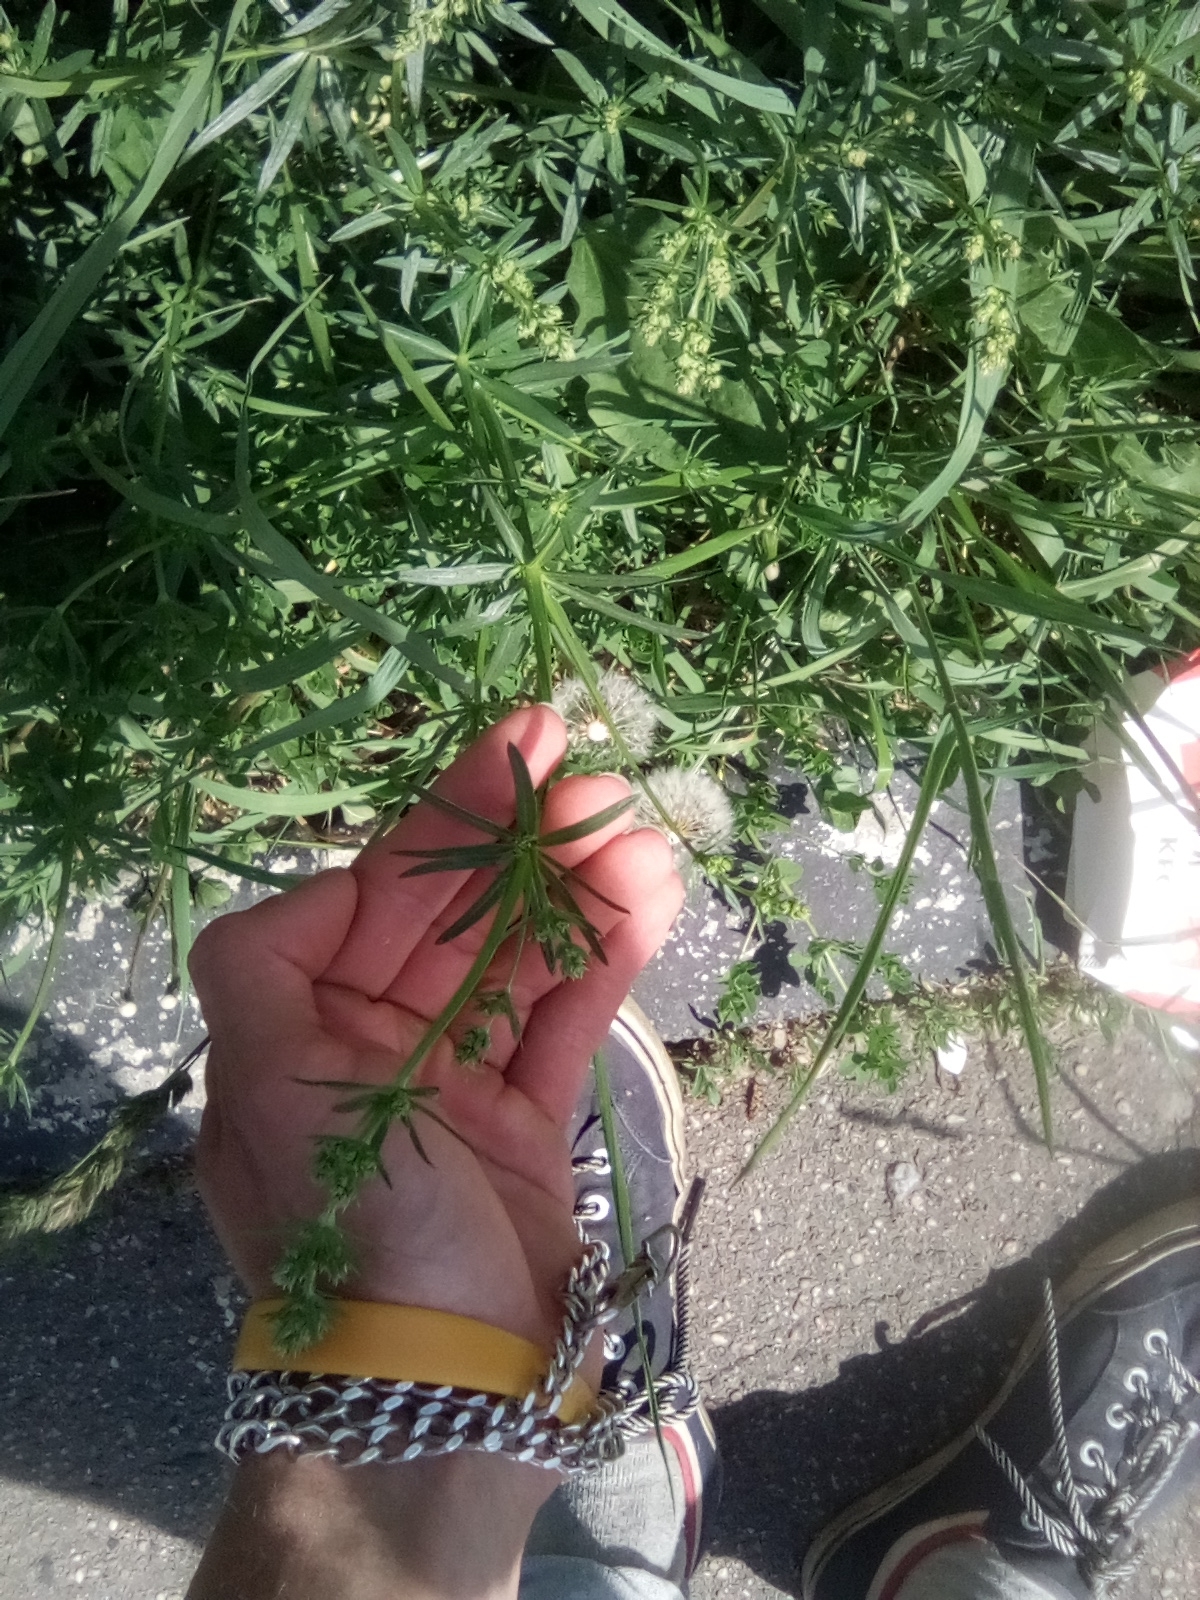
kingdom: Plantae
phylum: Tracheophyta
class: Magnoliopsida
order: Gentianales
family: Rubiaceae
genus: Galium
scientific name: Galium mollugo
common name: Hedge bedstraw
